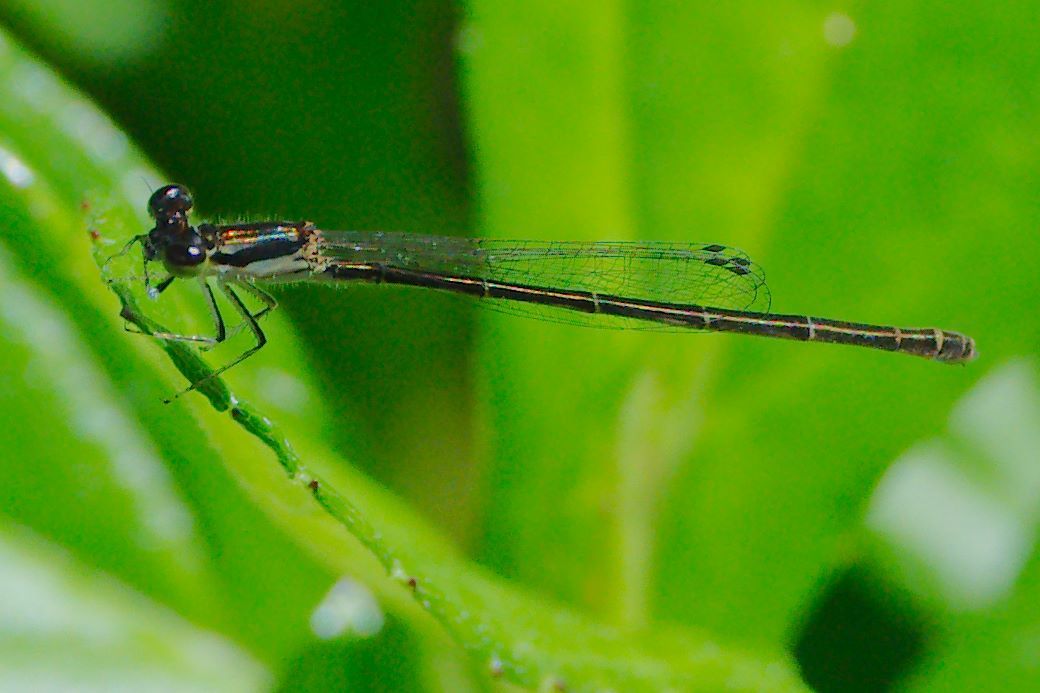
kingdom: Animalia
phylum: Arthropoda
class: Insecta
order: Odonata
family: Coenagrionidae
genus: Ischnura
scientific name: Ischnura posita
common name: Fragile forktail
